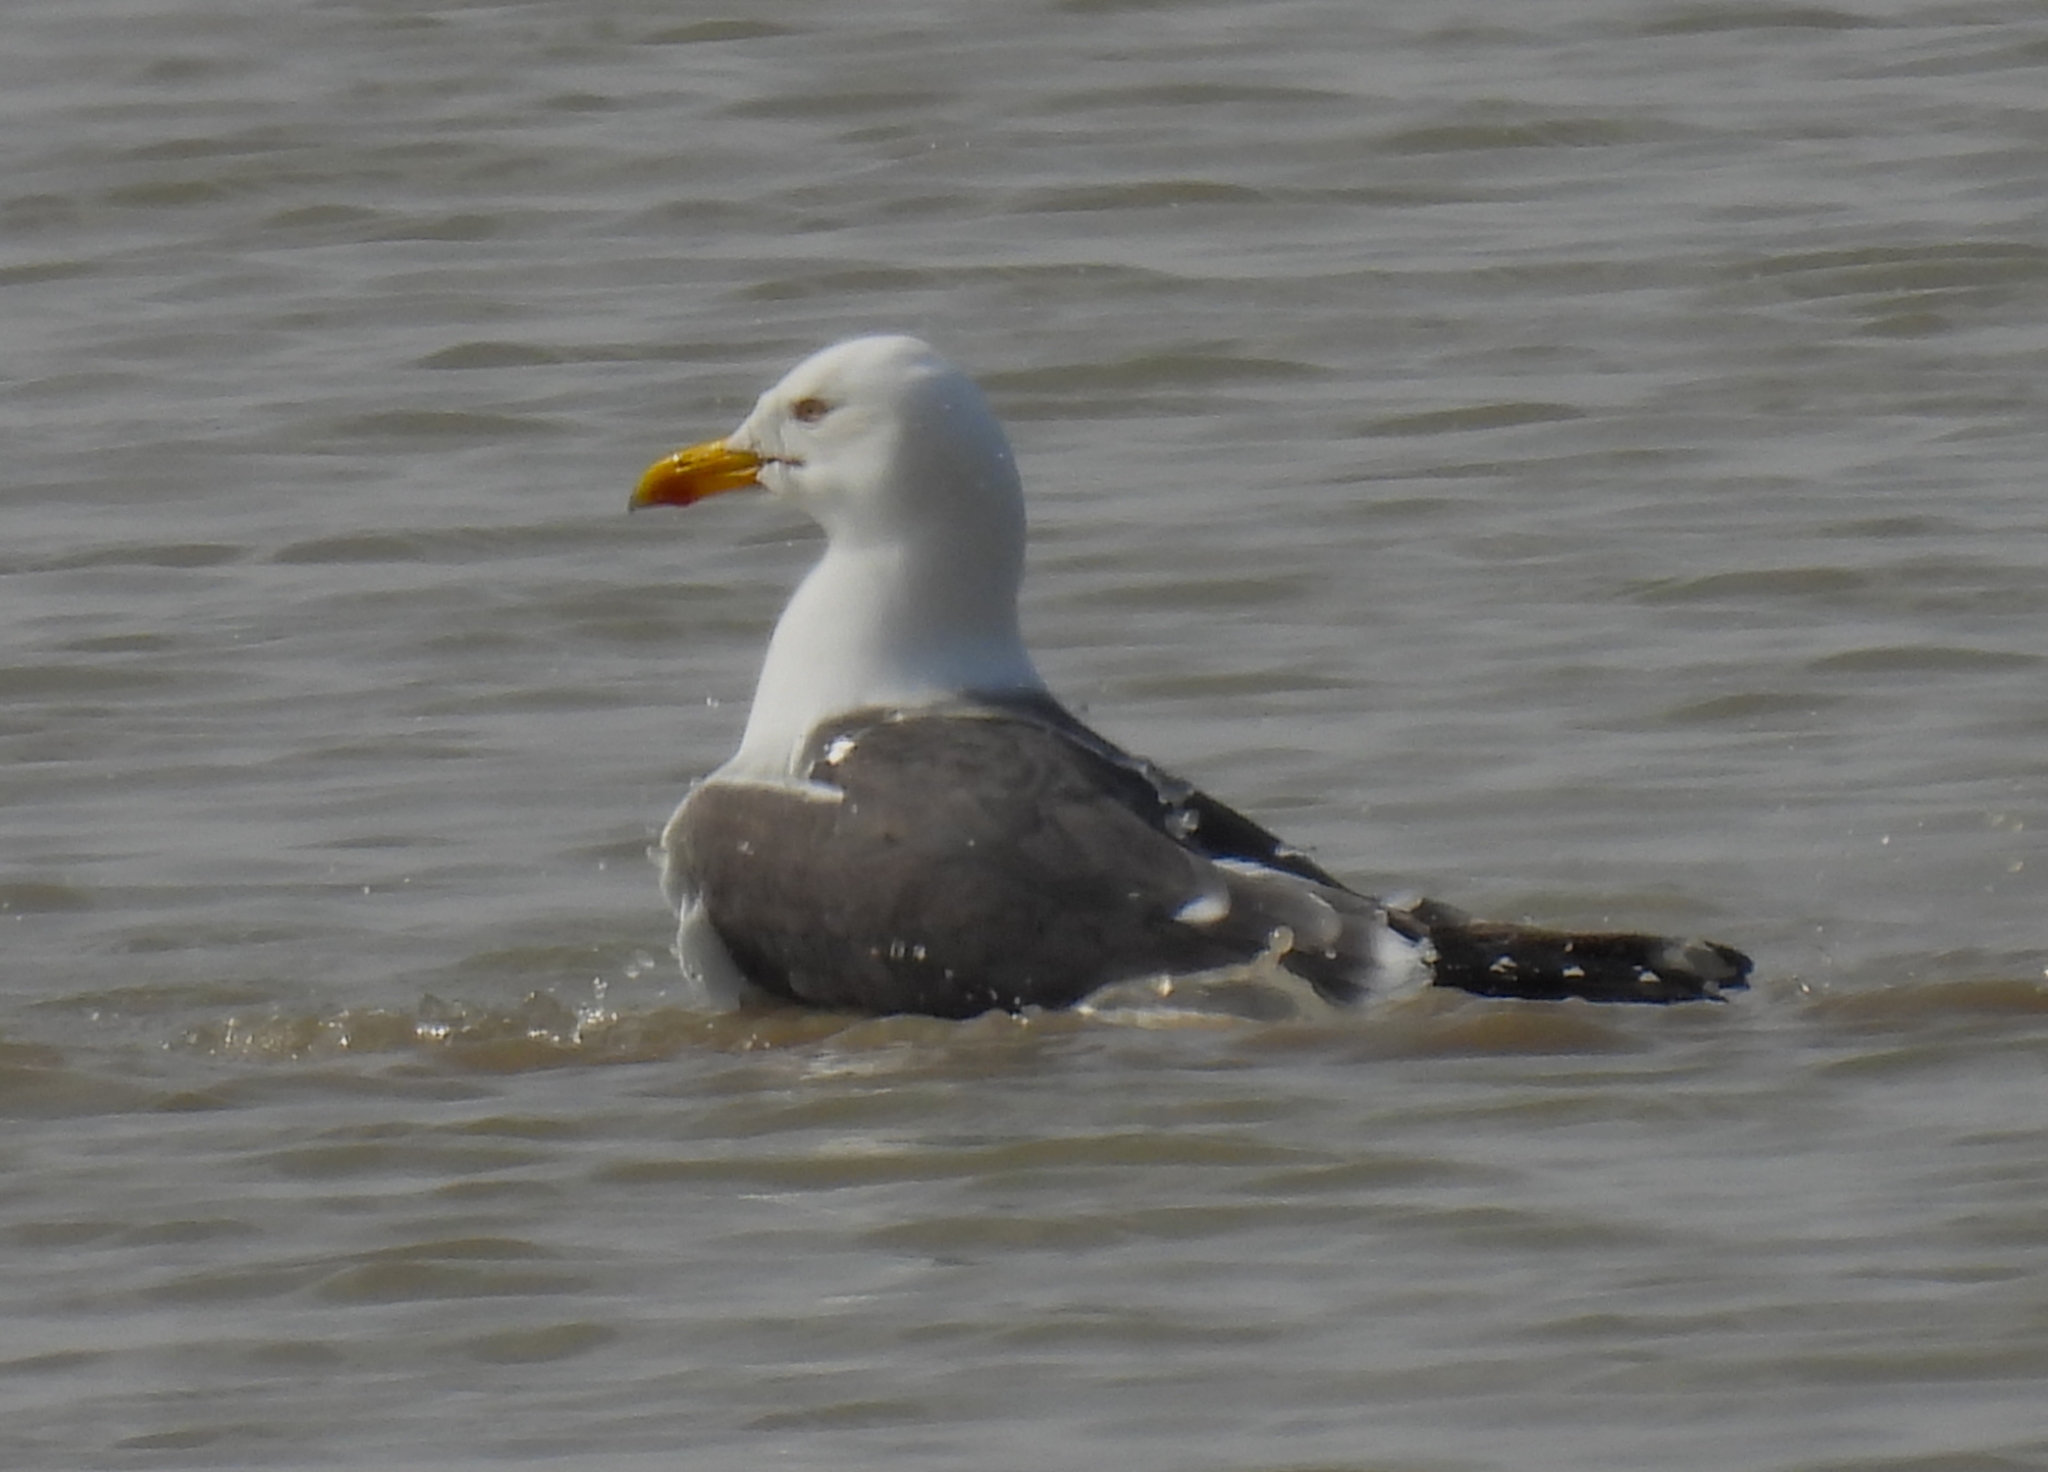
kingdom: Animalia
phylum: Chordata
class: Aves
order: Charadriiformes
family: Laridae
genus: Larus
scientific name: Larus fuscus
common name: Lesser black-backed gull
